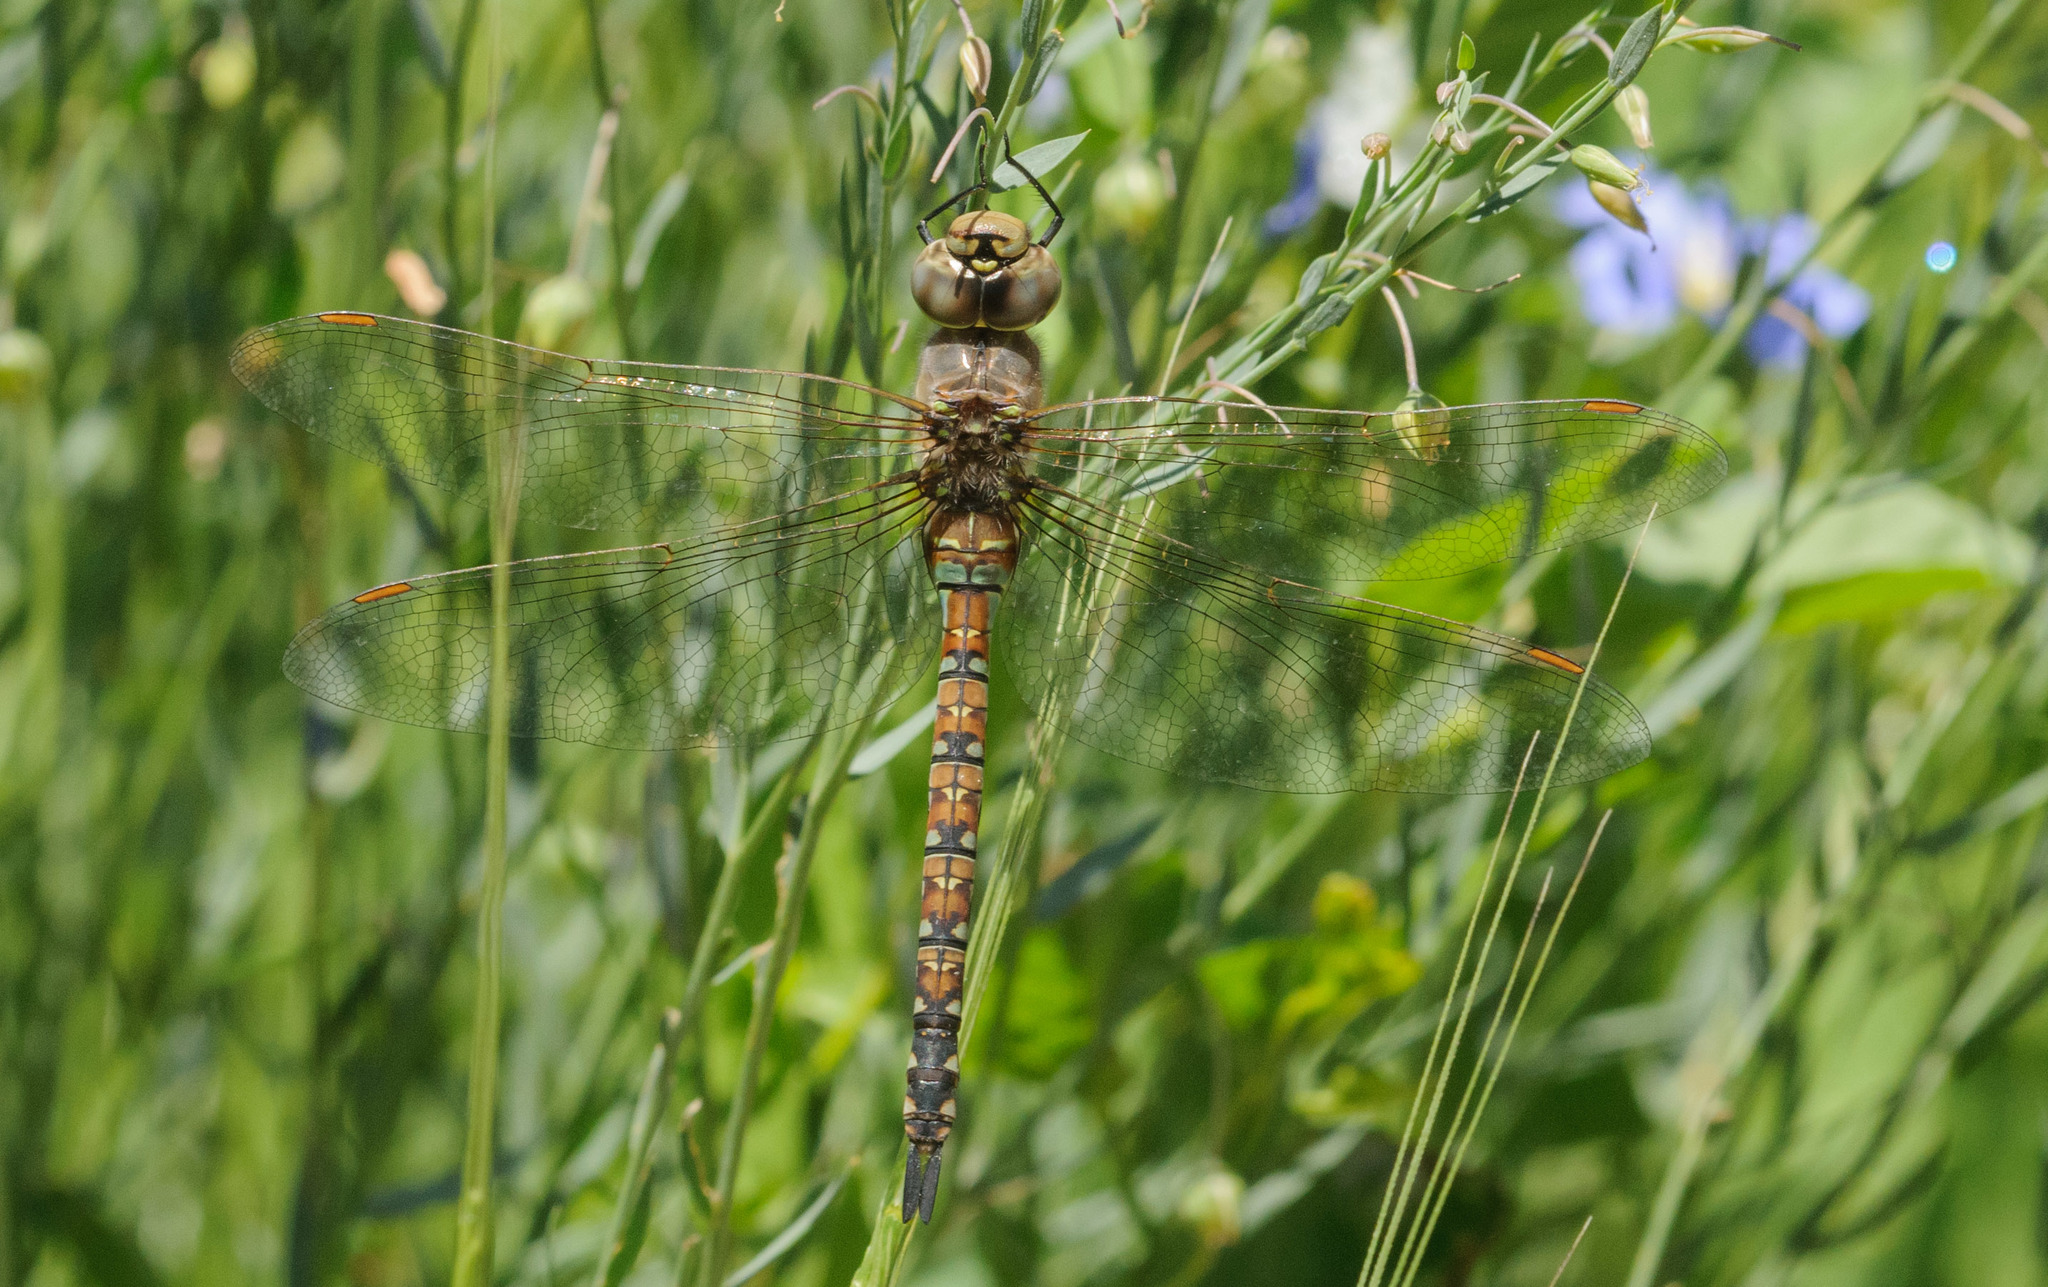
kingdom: Animalia
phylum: Arthropoda
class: Insecta
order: Odonata
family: Aeshnidae
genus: Rhionaeschna
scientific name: Rhionaeschna multicolor
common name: Blue-eyed darner
